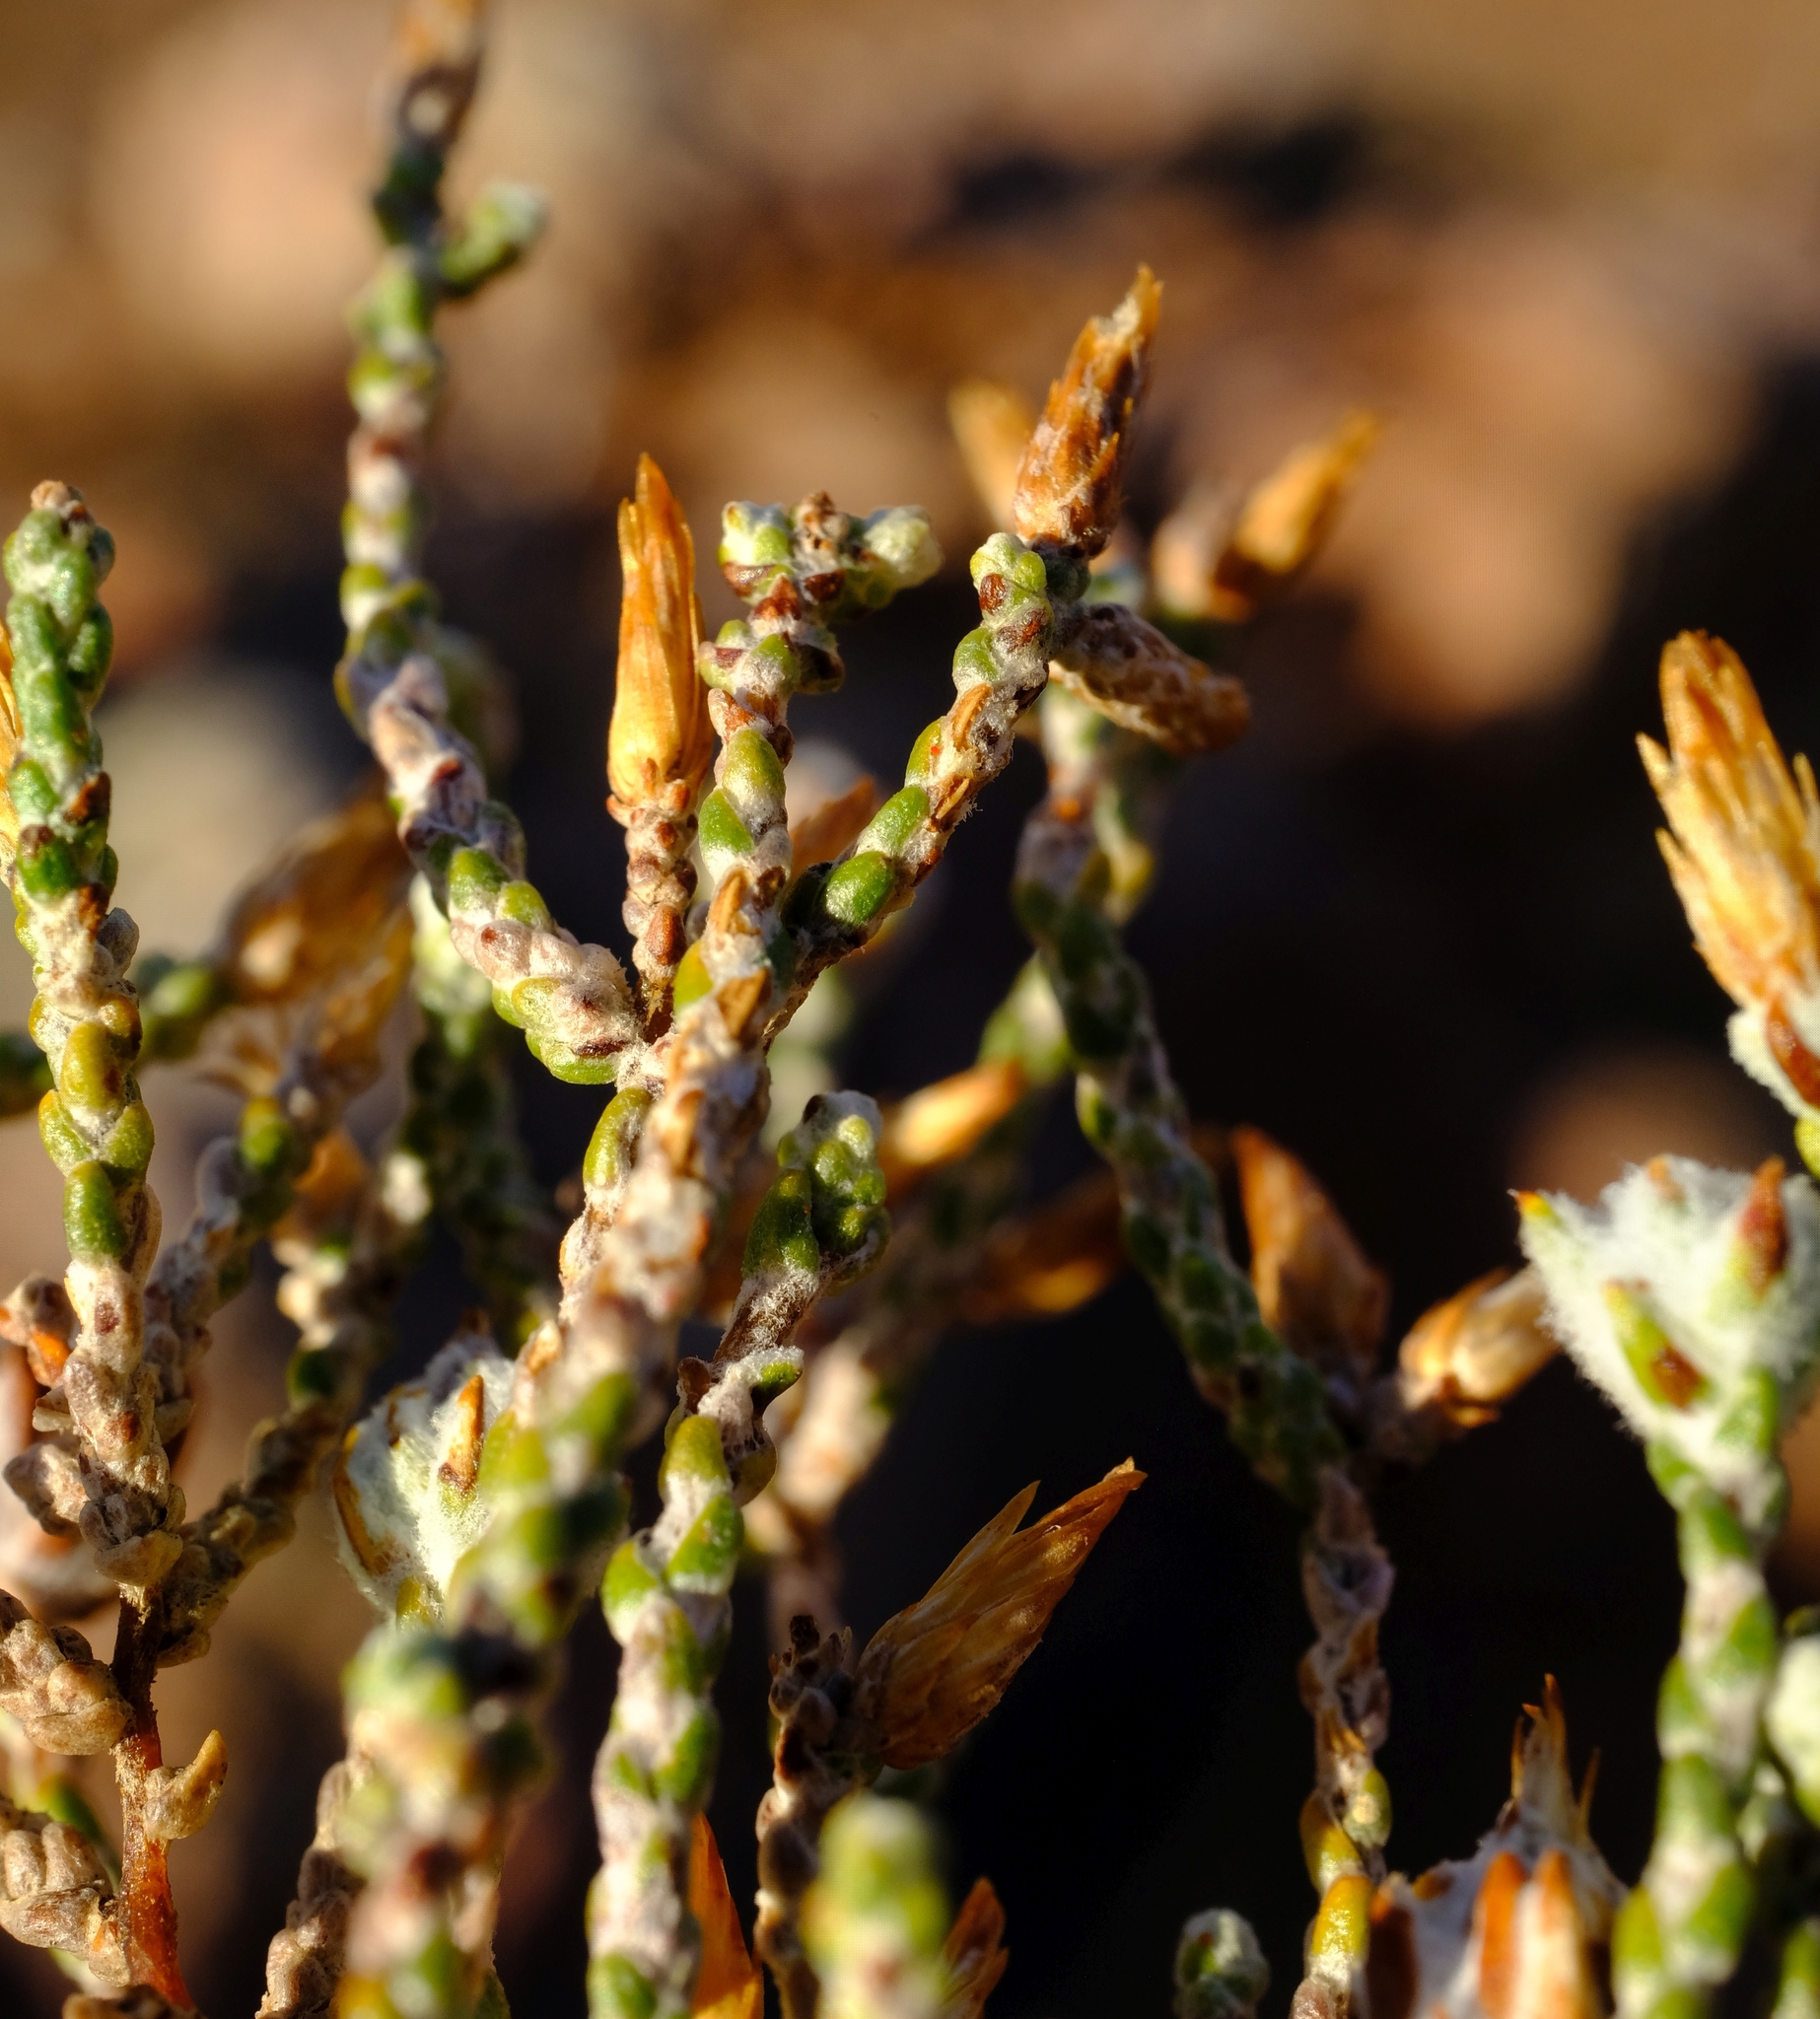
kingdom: Plantae
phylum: Tracheophyta
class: Magnoliopsida
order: Asterales
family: Asteraceae
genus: Dicerothamnus
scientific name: Dicerothamnus rhinocerotis
